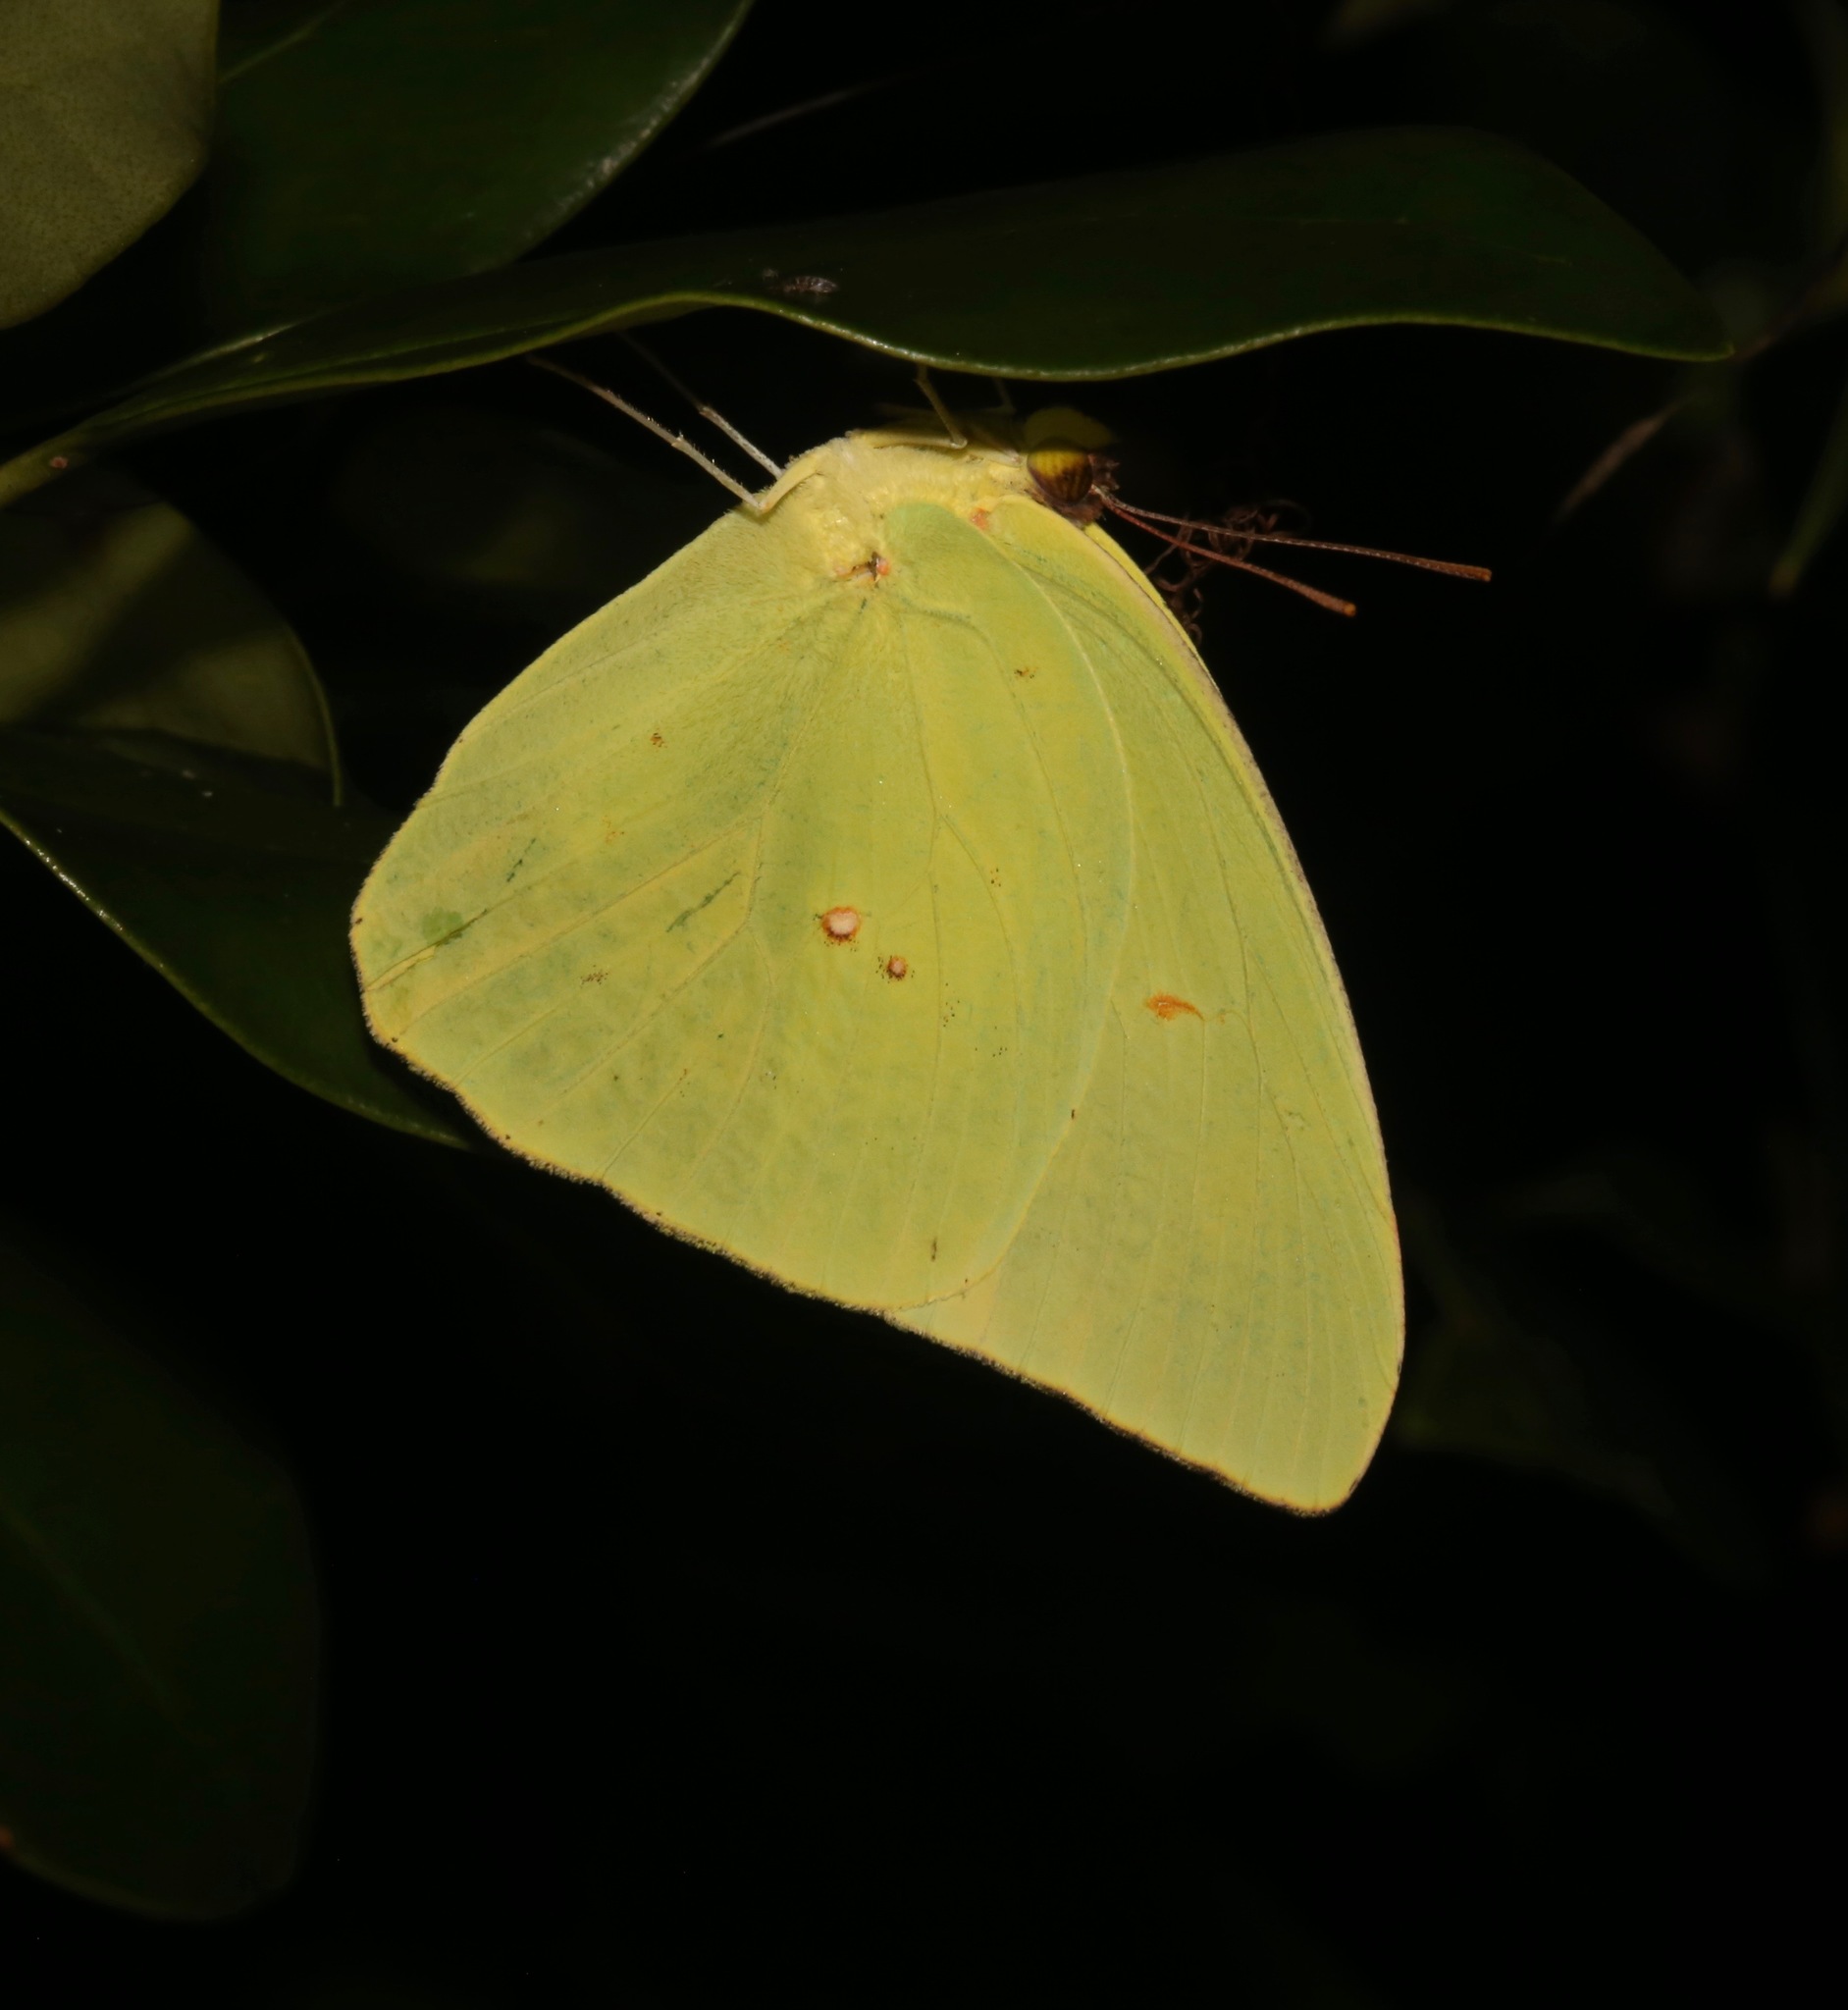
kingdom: Animalia
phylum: Arthropoda
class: Insecta
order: Lepidoptera
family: Pieridae
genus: Phoebis
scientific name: Phoebis sennae
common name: Cloudless sulphur
